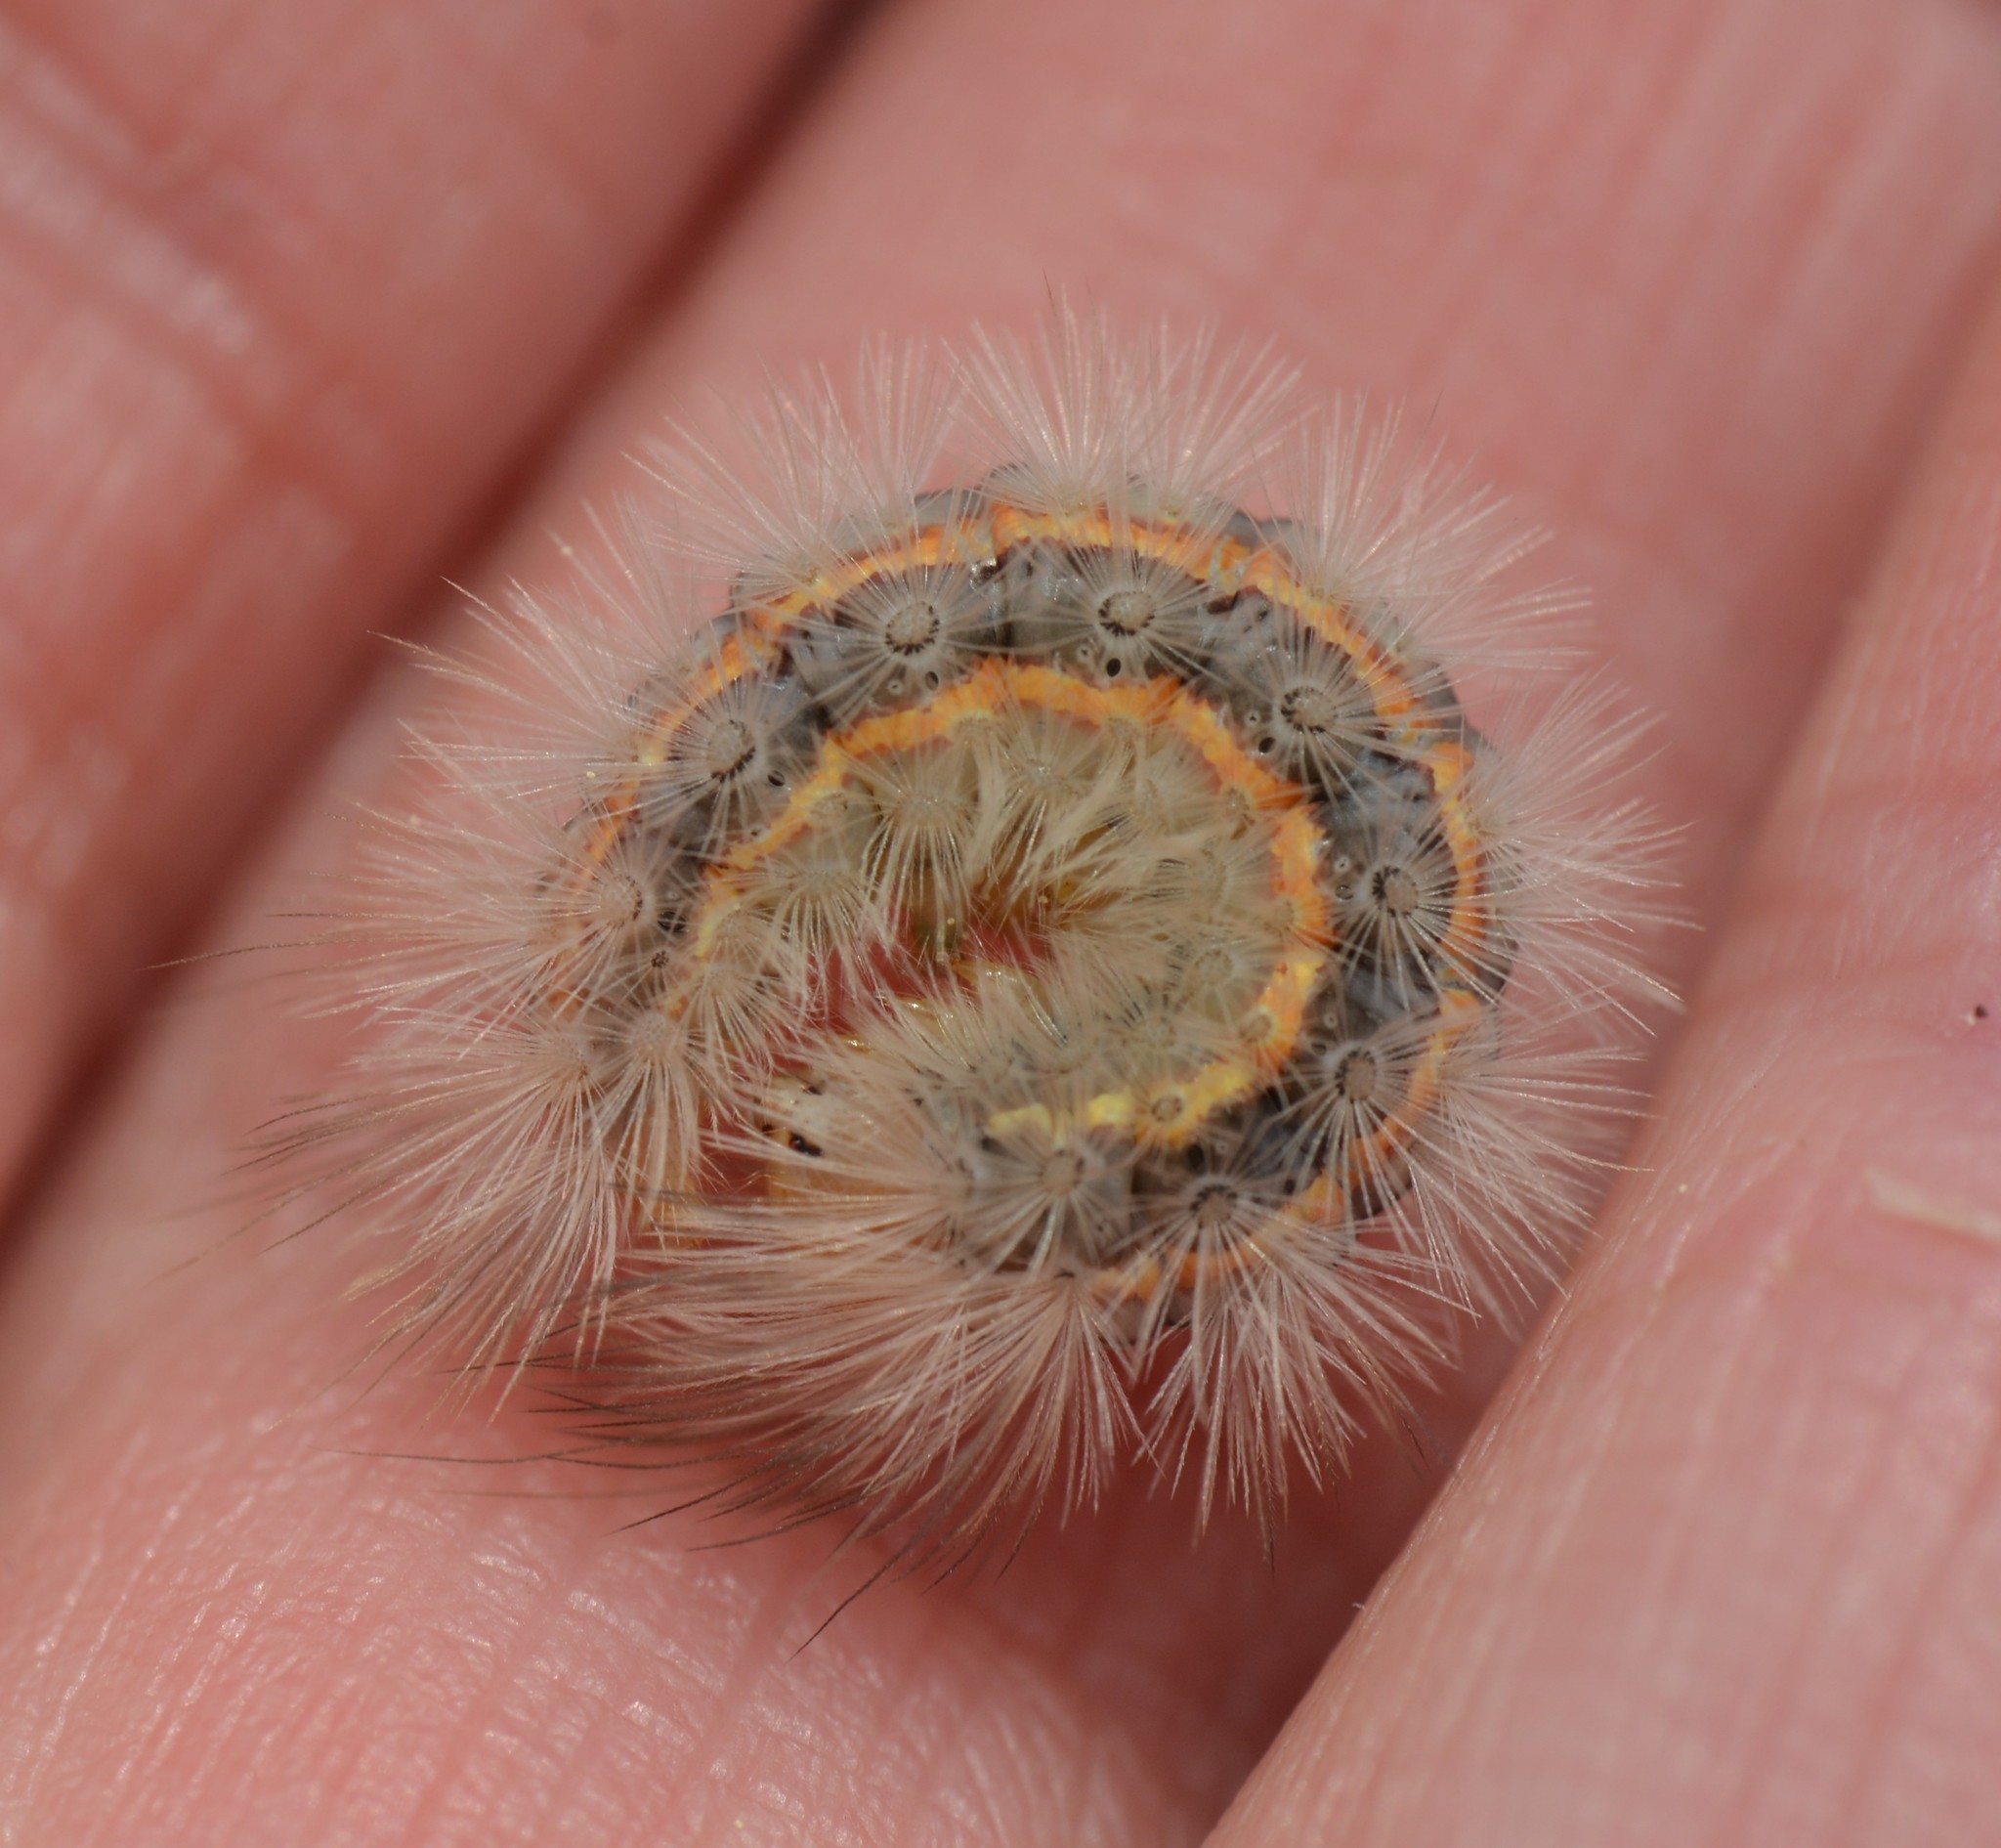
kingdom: Animalia
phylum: Arthropoda
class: Insecta
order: Lepidoptera
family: Erebidae
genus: Cisseps
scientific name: Cisseps fulvicollis
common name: Yellow-collared scape moth
